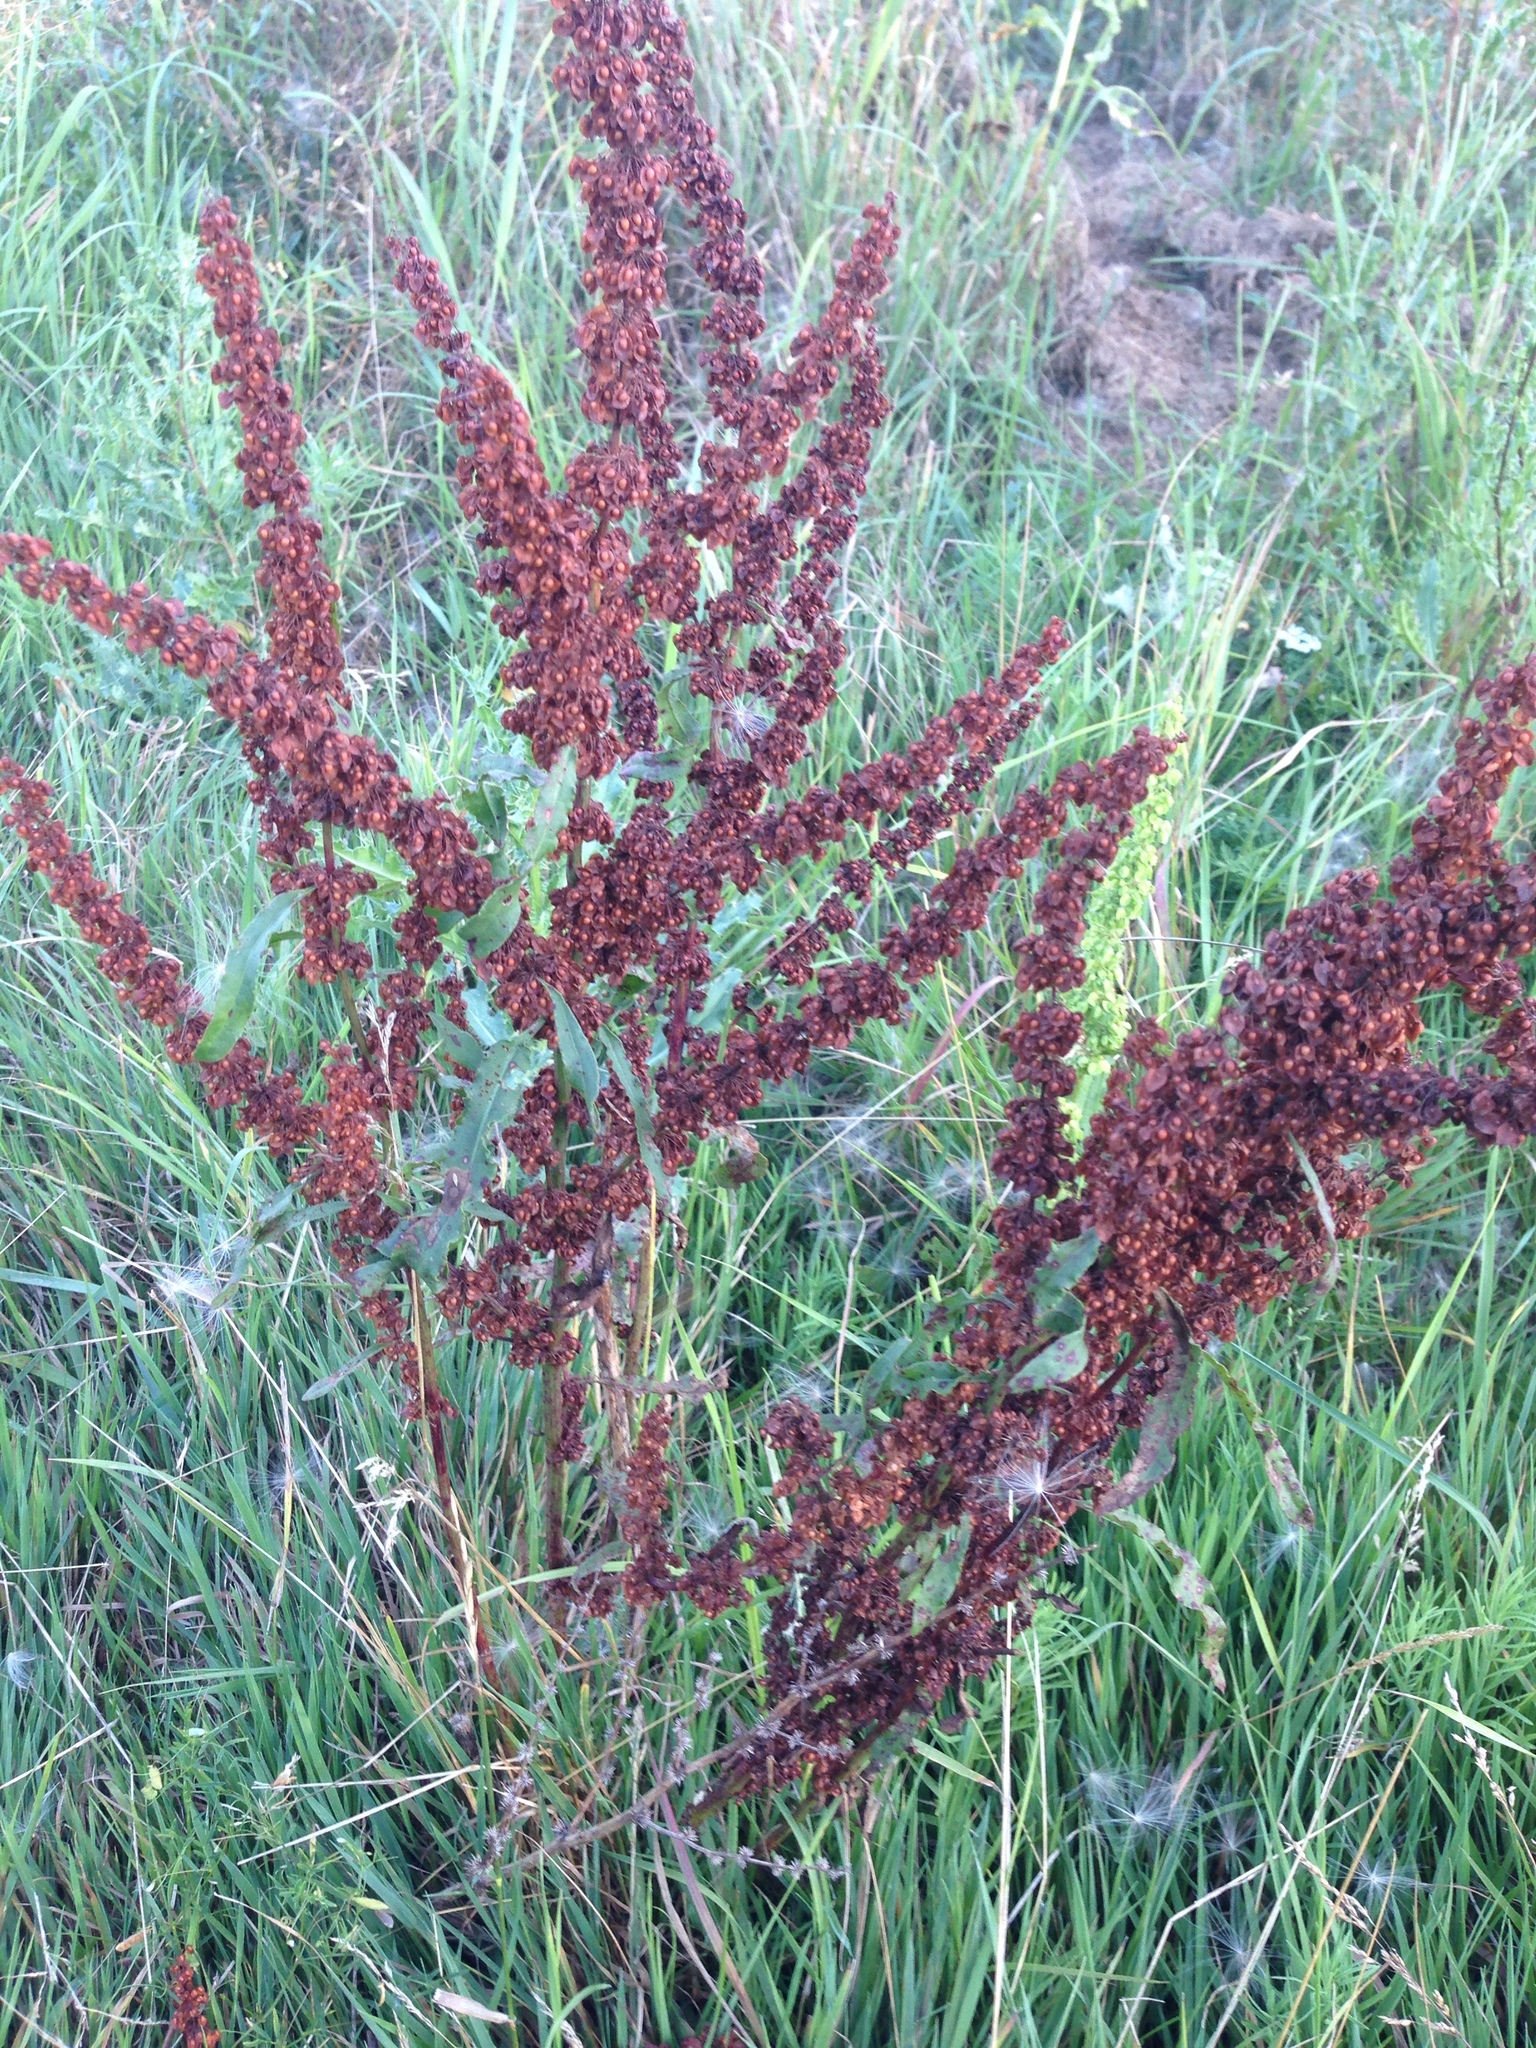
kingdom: Plantae
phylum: Tracheophyta
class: Magnoliopsida
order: Caryophyllales
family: Polygonaceae
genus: Rumex
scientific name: Rumex crispus
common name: Curled dock
